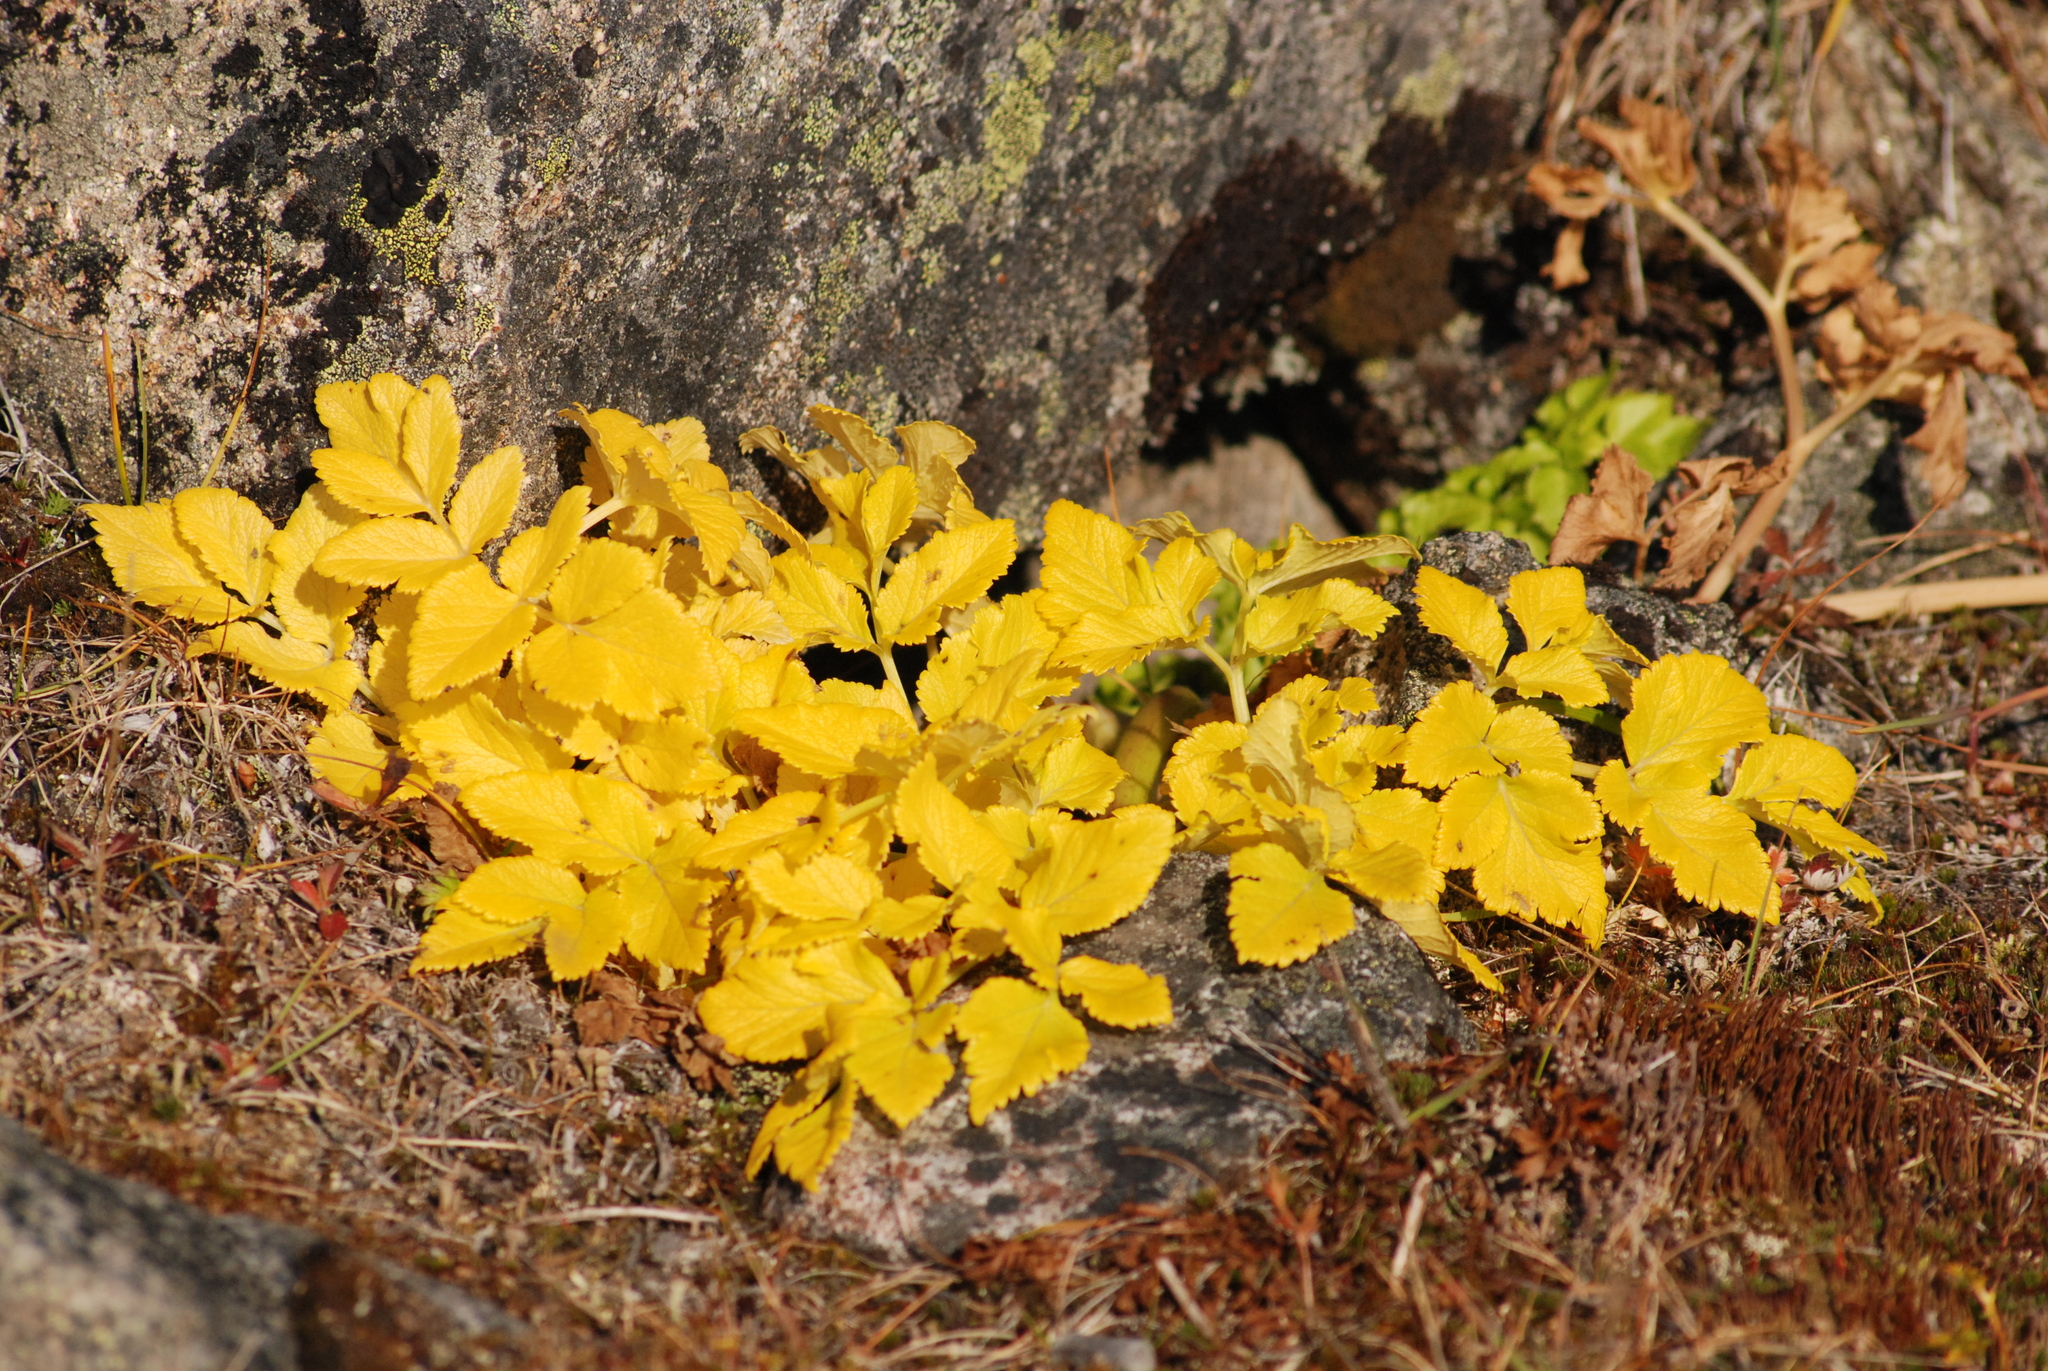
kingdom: Plantae
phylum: Tracheophyta
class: Magnoliopsida
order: Apiales
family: Apiaceae
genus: Angelica
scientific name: Angelica gmelinii
